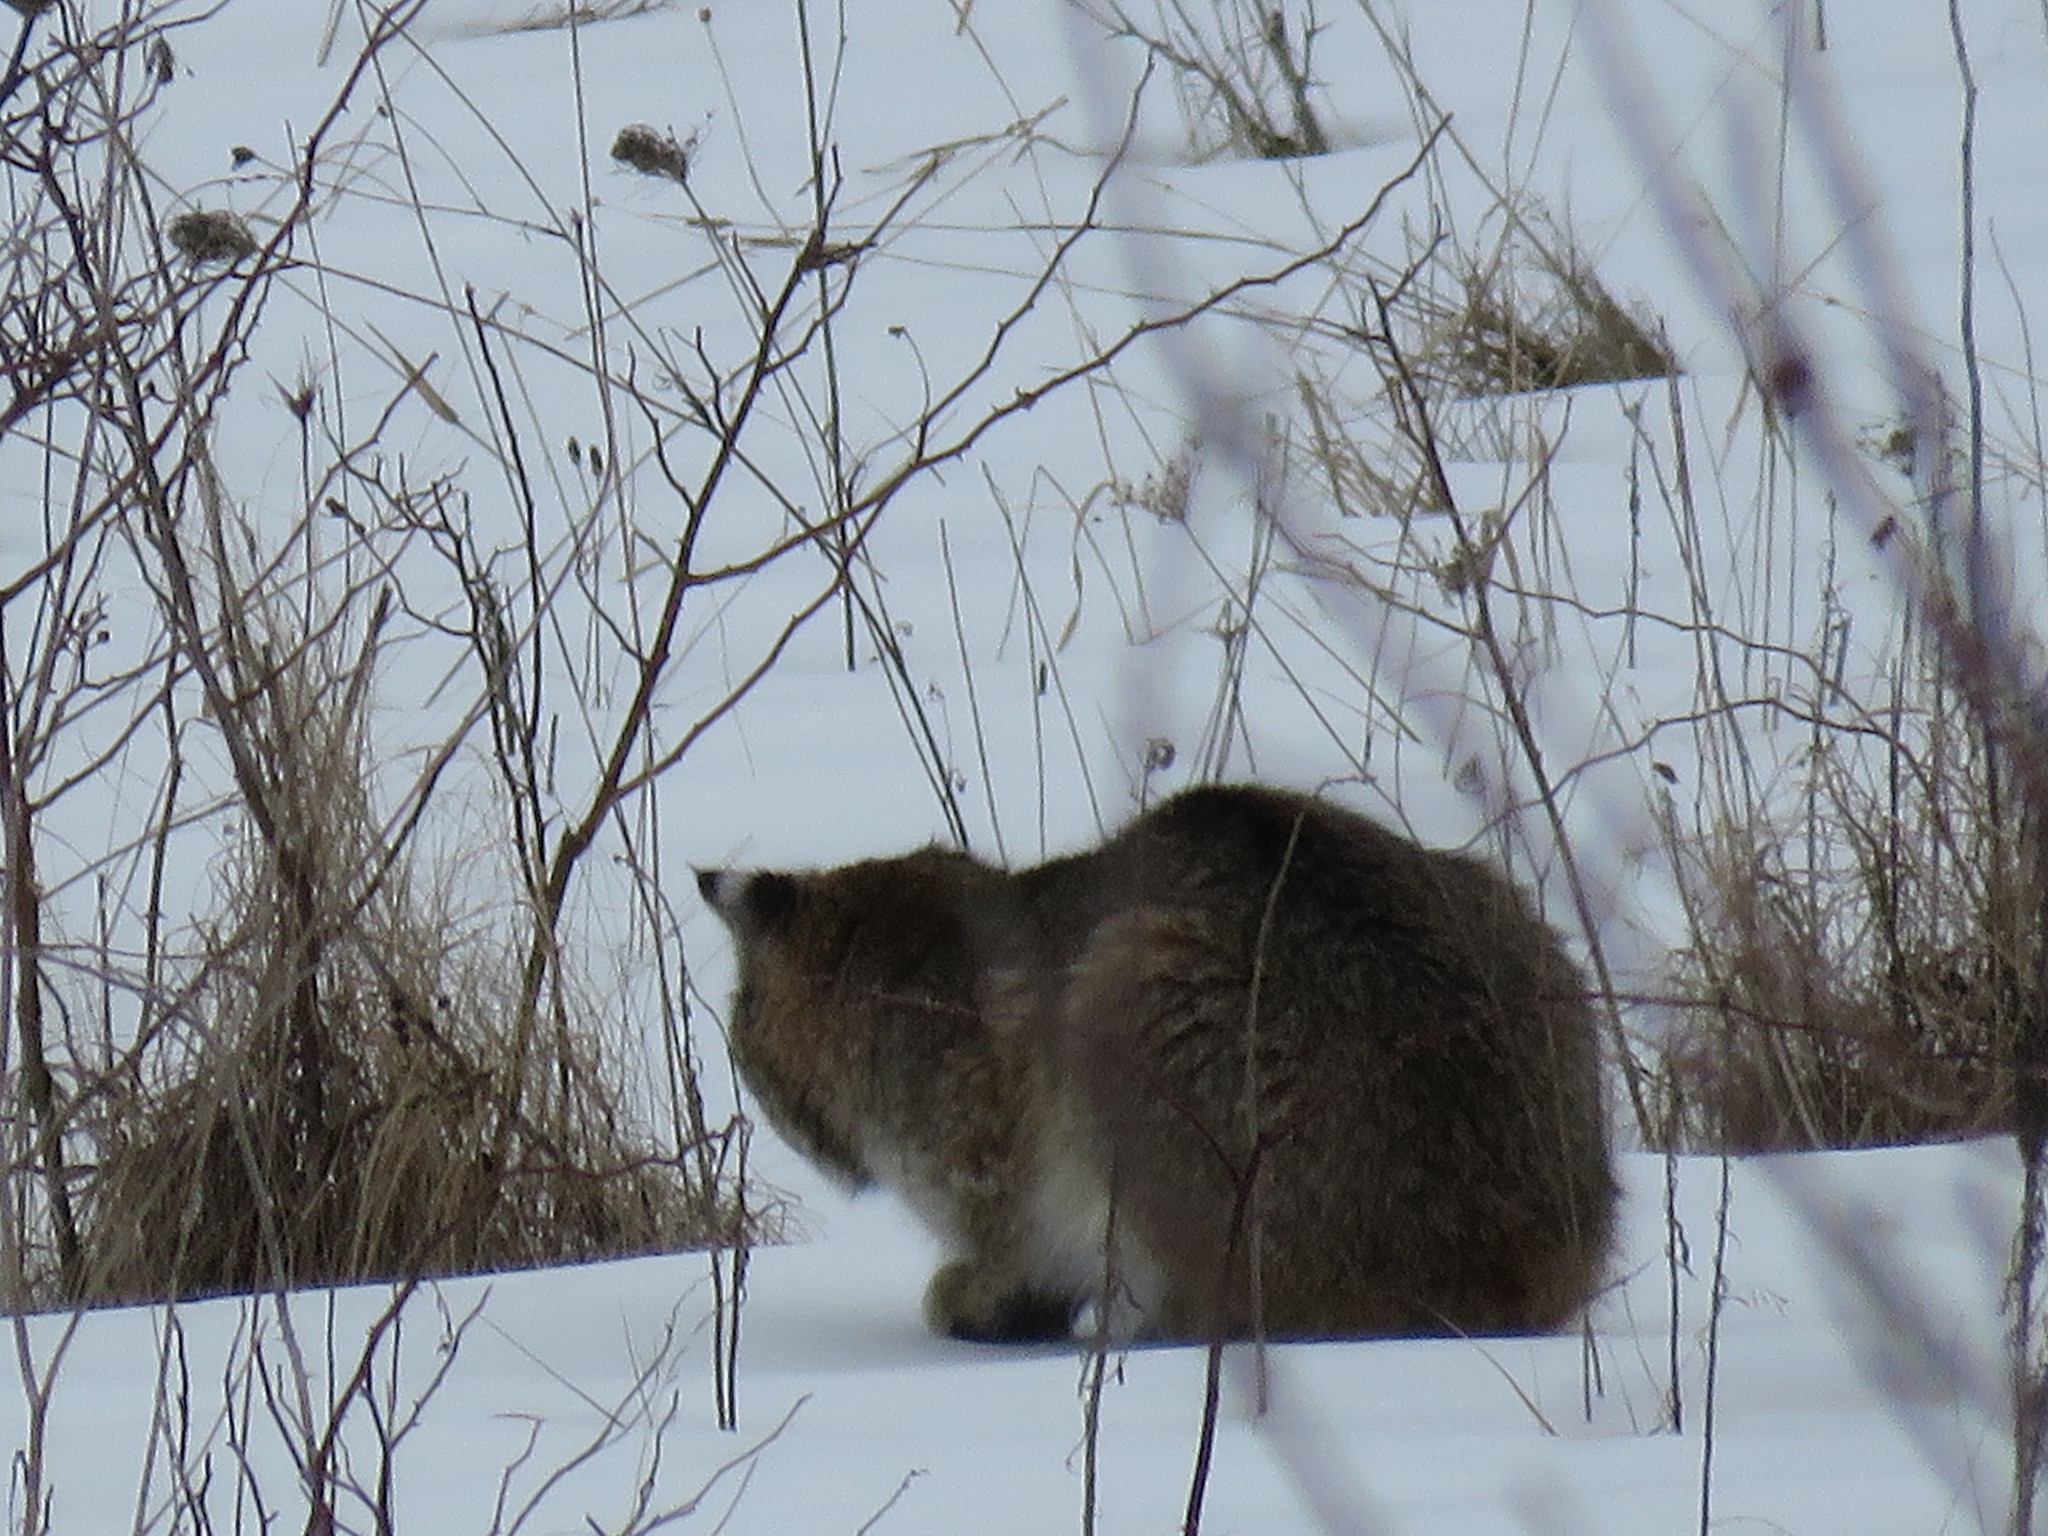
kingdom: Animalia
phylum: Chordata
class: Mammalia
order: Carnivora
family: Felidae
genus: Lynx
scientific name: Lynx rufus
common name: Bobcat
